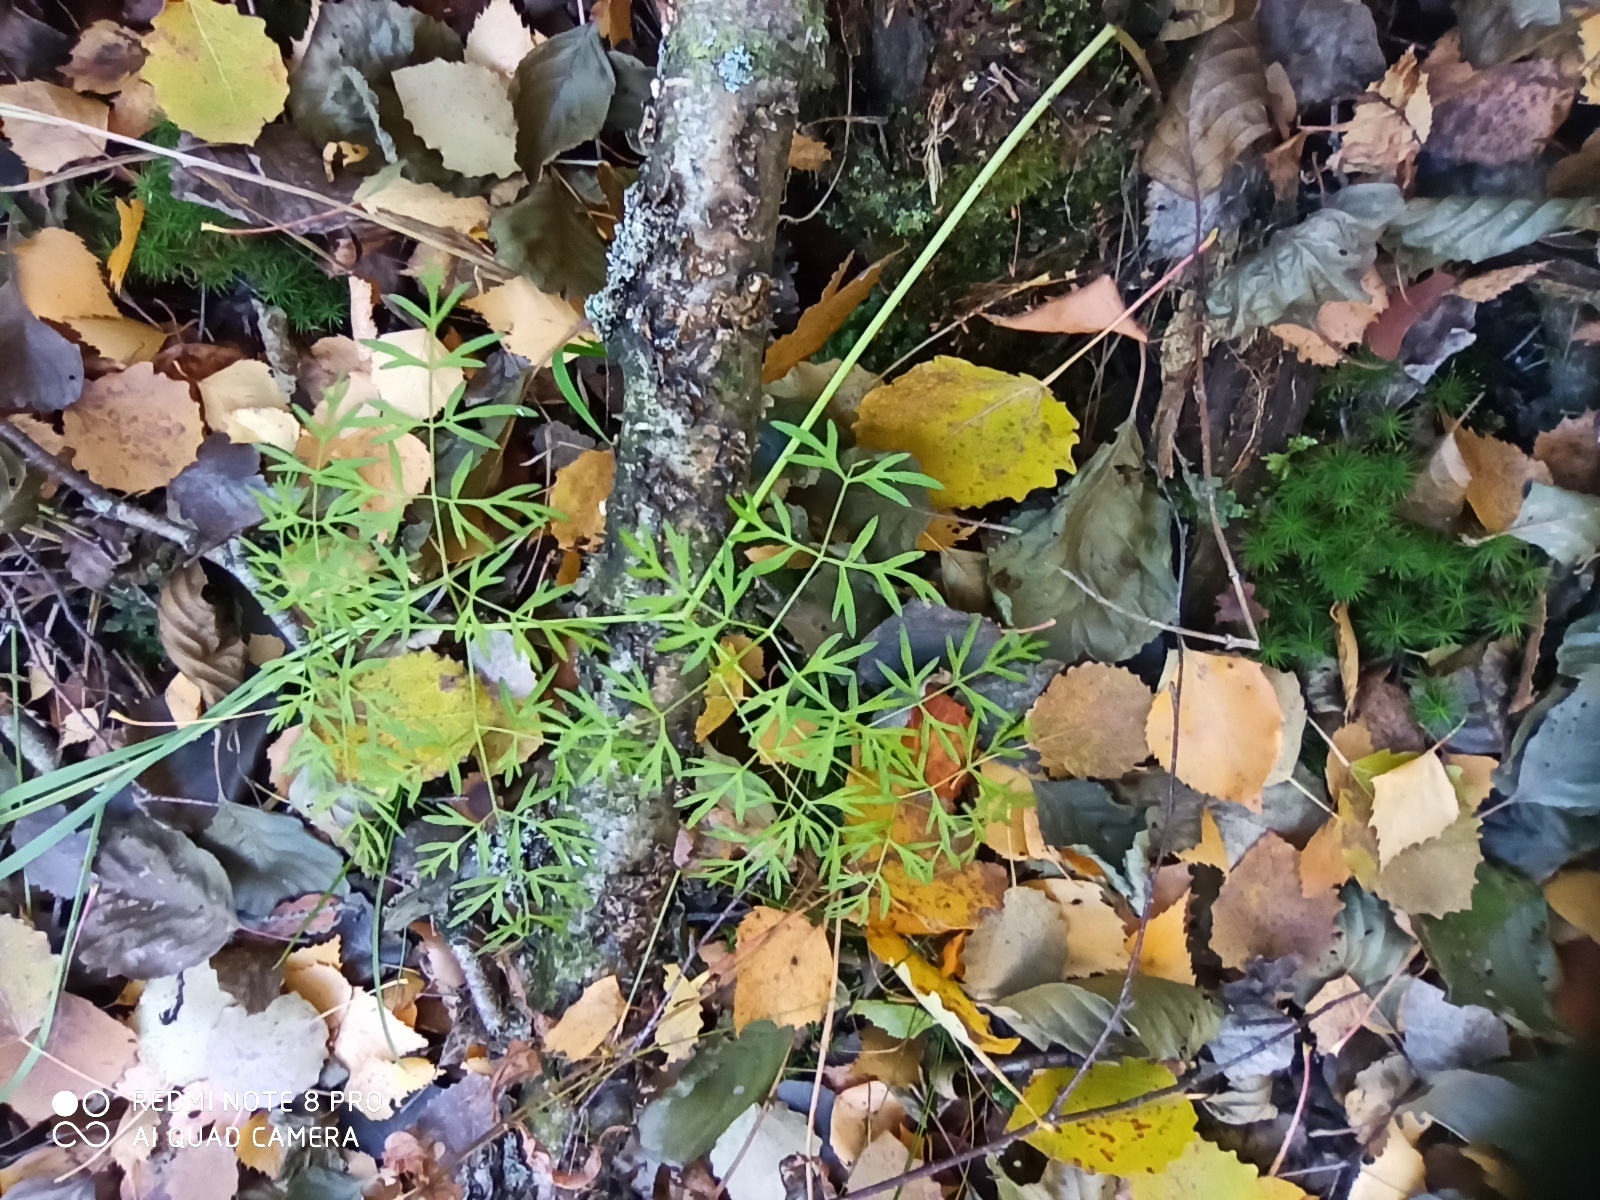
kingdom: Plantae
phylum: Tracheophyta
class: Magnoliopsida
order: Apiales
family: Apiaceae
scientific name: Apiaceae
